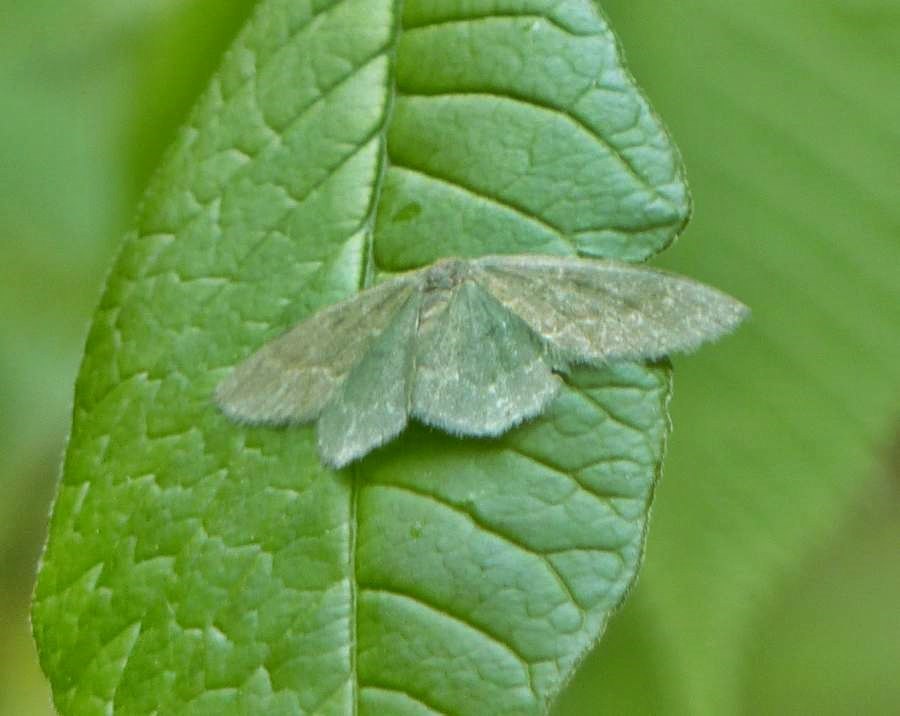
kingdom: Animalia
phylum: Arthropoda
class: Insecta
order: Lepidoptera
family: Geometridae
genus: Thalera
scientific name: Thalera pistasciaria
